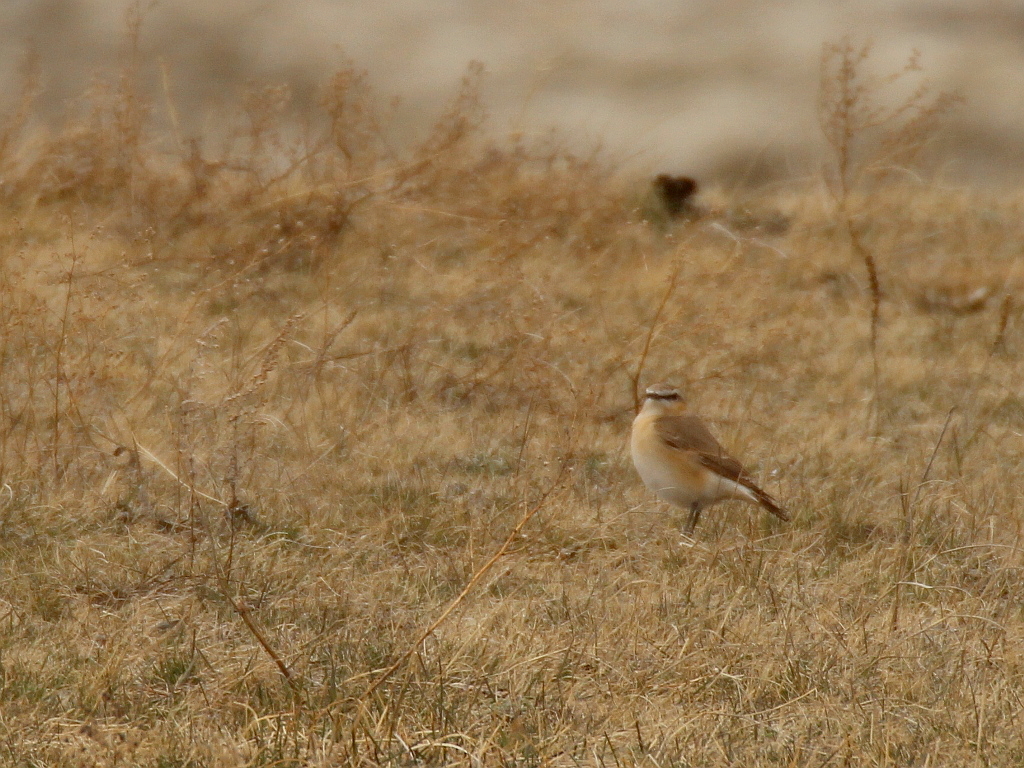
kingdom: Animalia
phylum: Chordata
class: Aves
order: Passeriformes
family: Muscicapidae
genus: Oenanthe
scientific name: Oenanthe isabellina
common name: Isabelline wheatear
